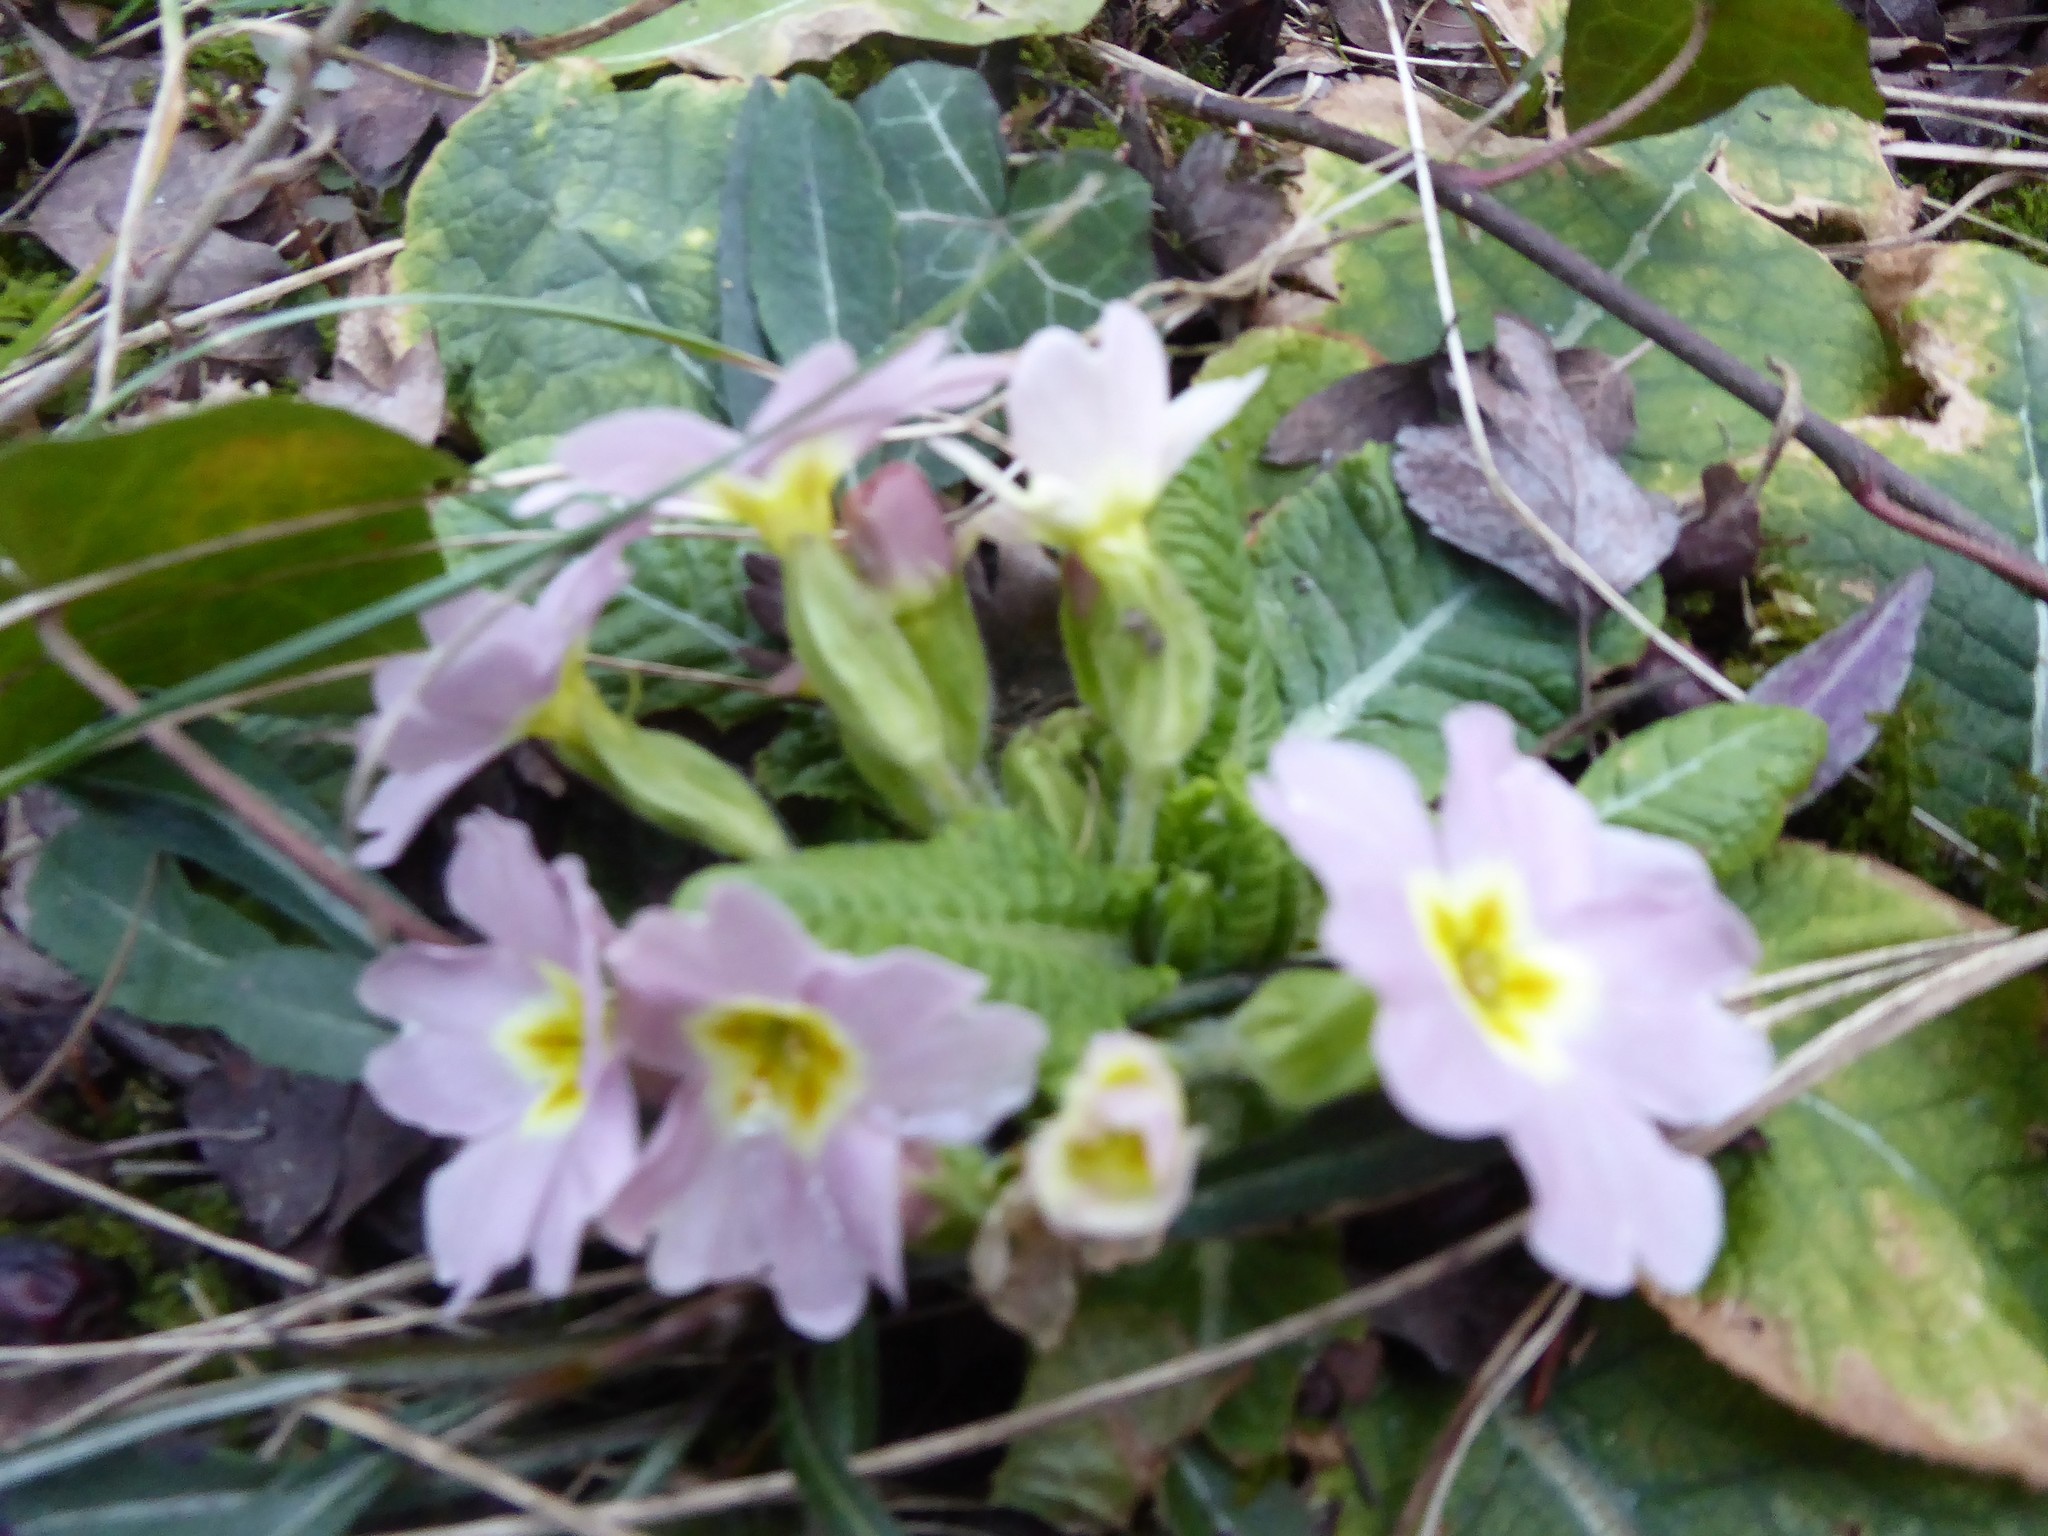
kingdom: Plantae
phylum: Tracheophyta
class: Magnoliopsida
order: Ericales
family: Primulaceae
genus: Primula
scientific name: Primula vulgaris
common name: Primrose
